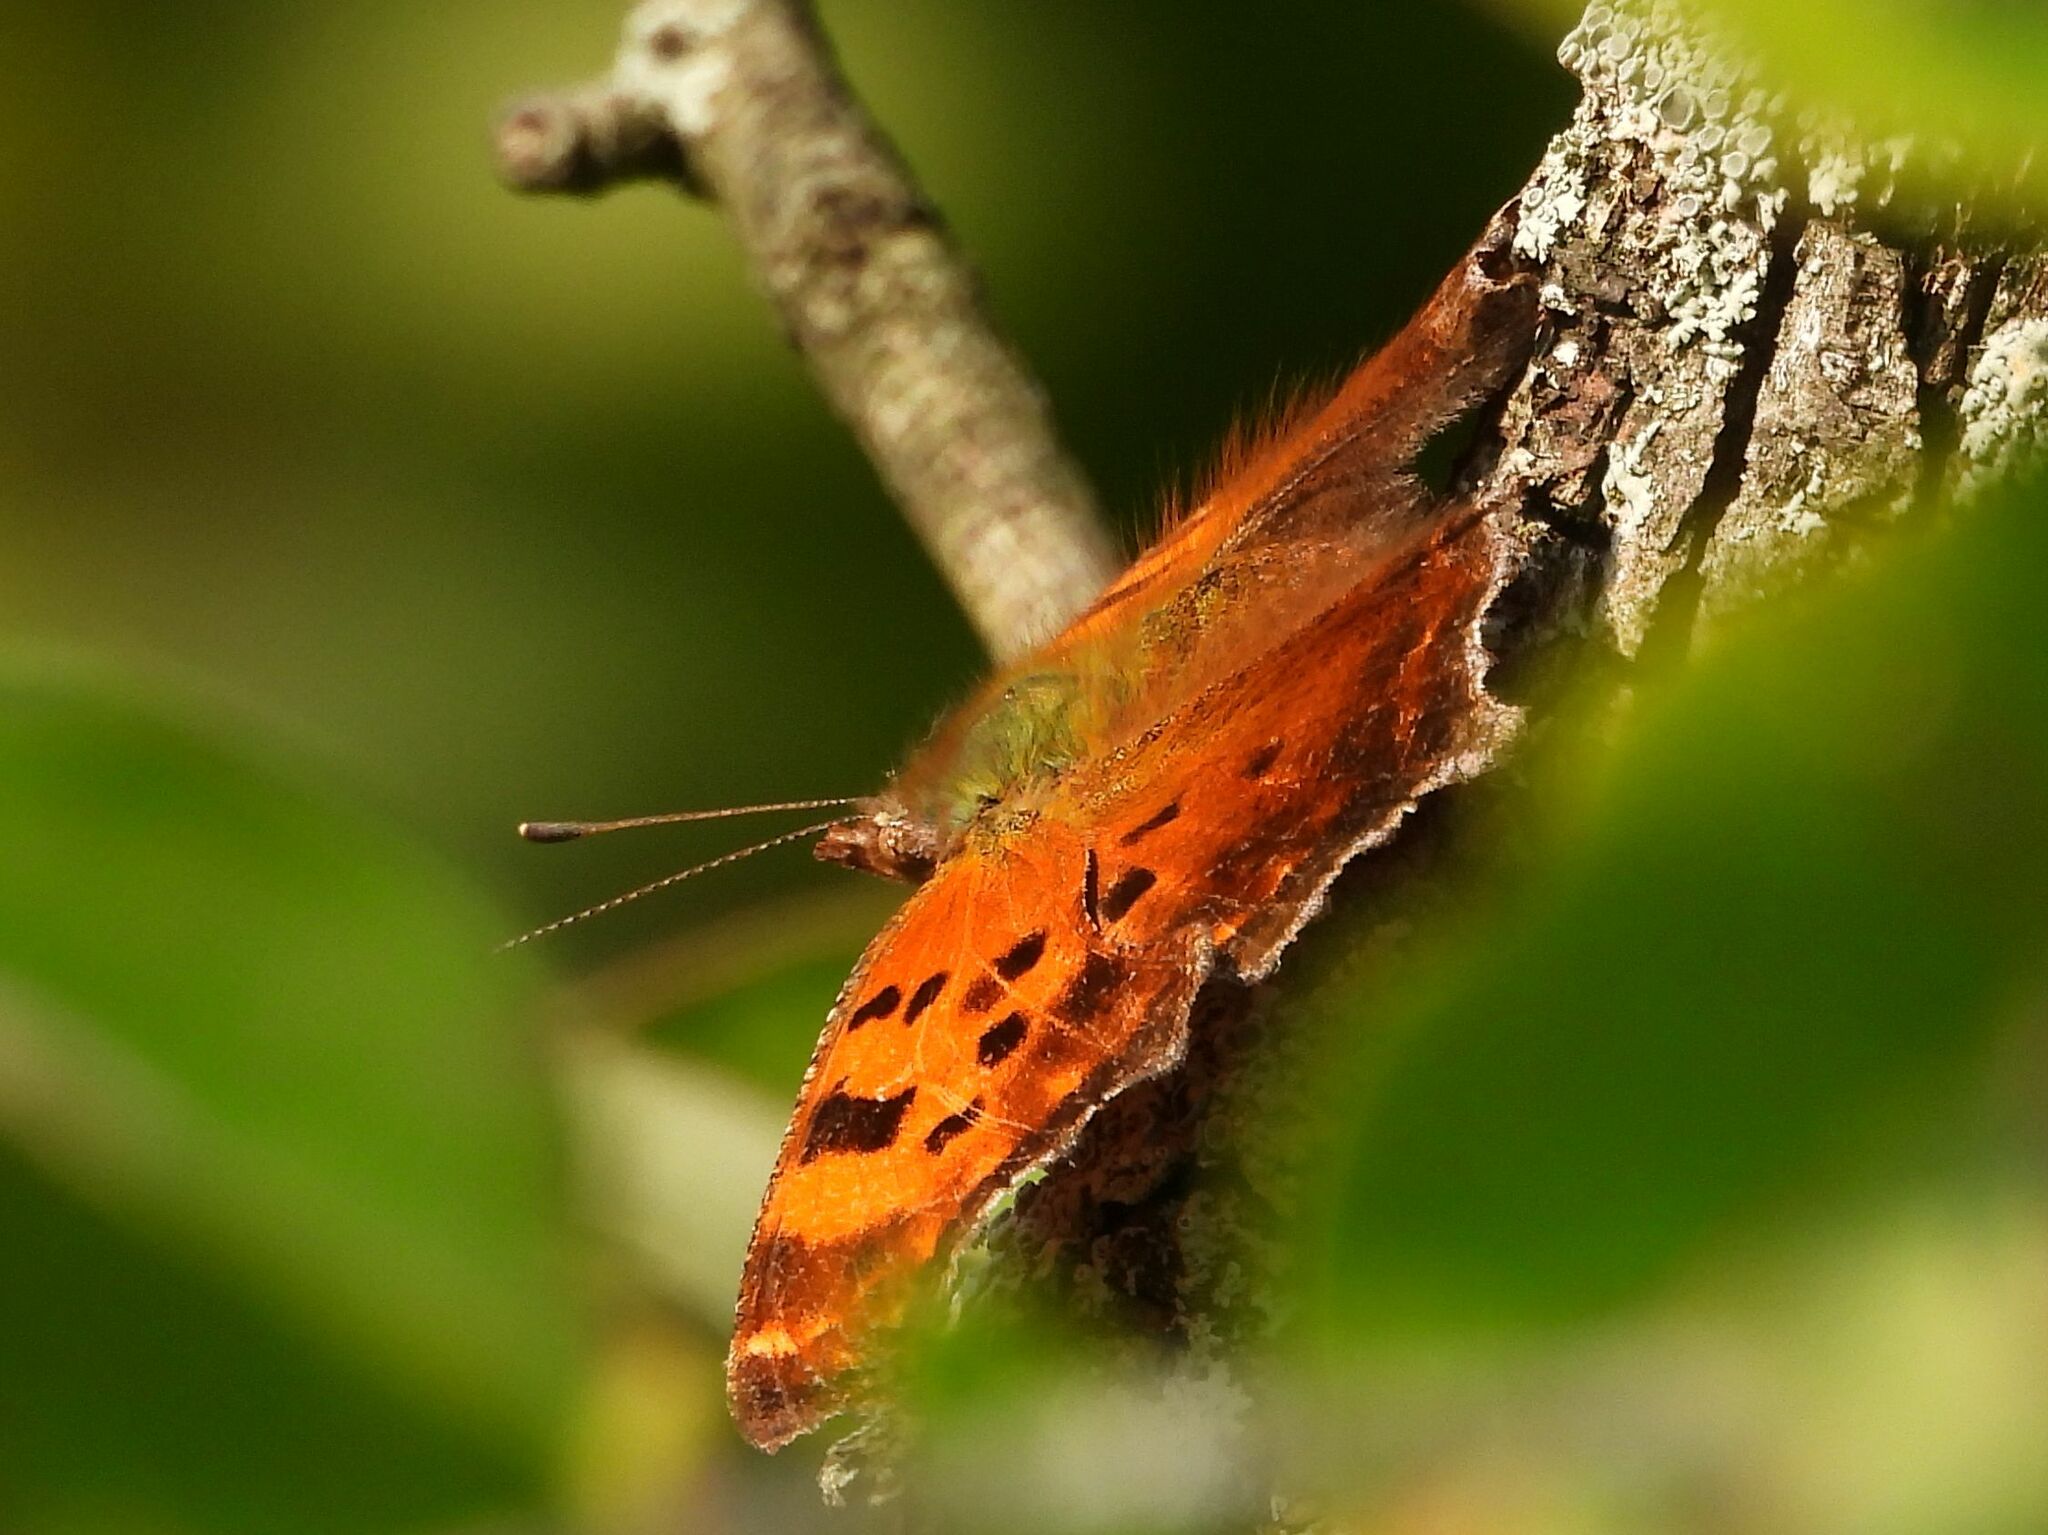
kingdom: Animalia
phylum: Arthropoda
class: Insecta
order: Lepidoptera
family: Nymphalidae
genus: Polygonia
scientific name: Polygonia comma
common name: Eastern comma
